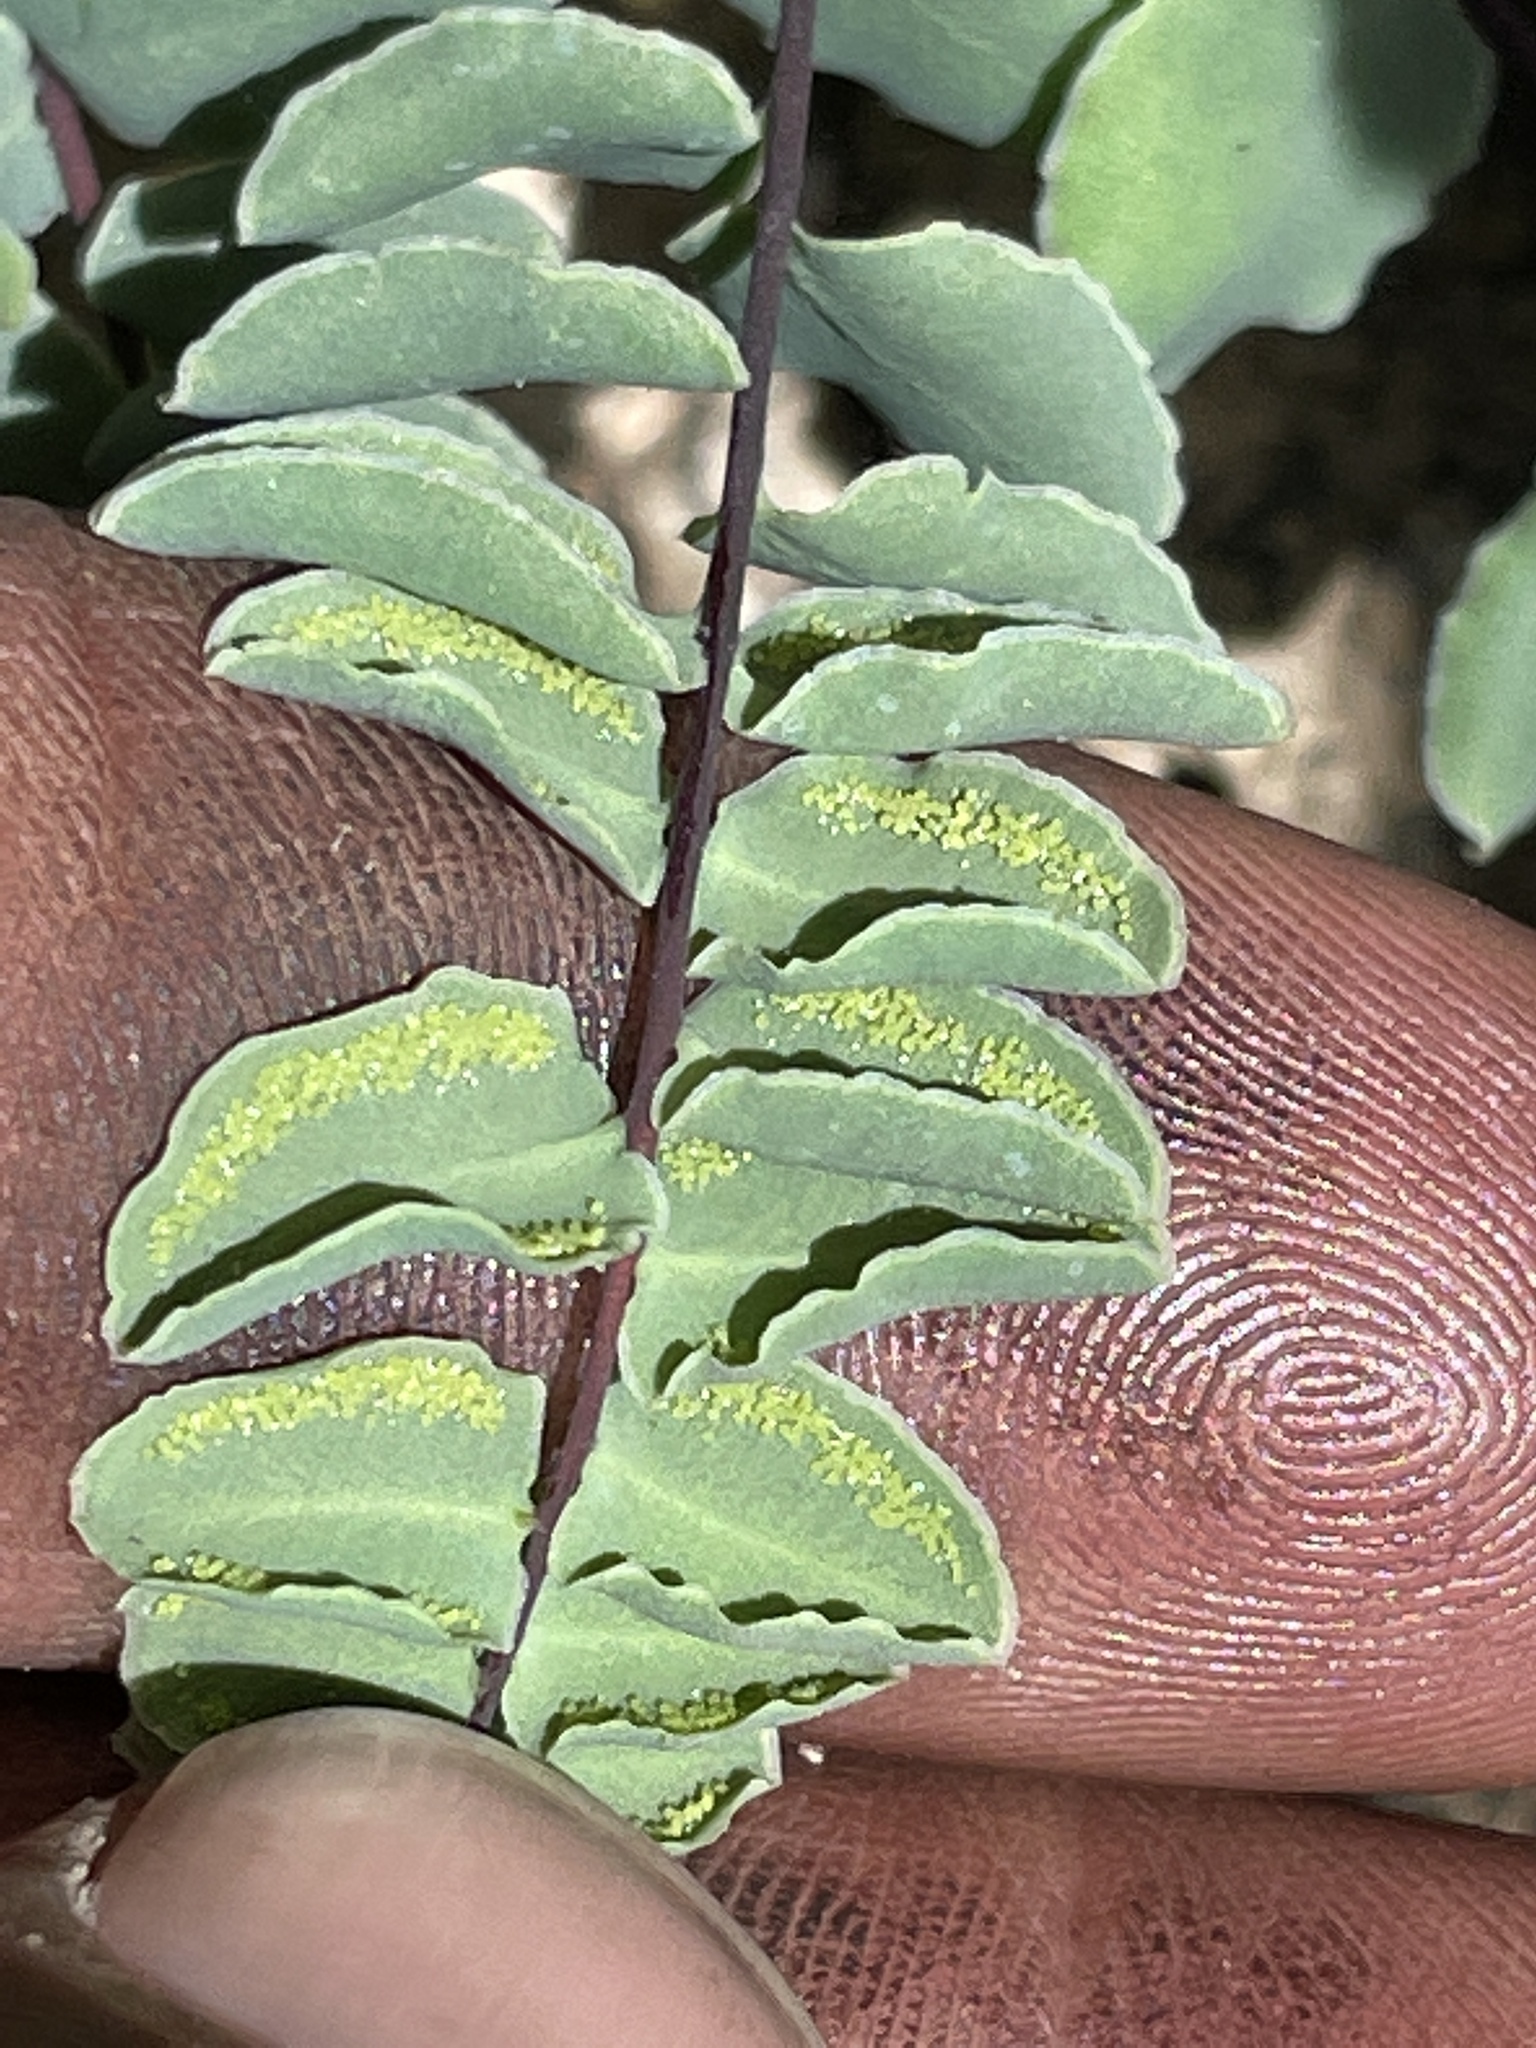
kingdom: Plantae
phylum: Tracheophyta
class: Polypodiopsida
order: Polypodiales
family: Pteridaceae
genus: Pellaea
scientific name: Pellaea bridgesii
